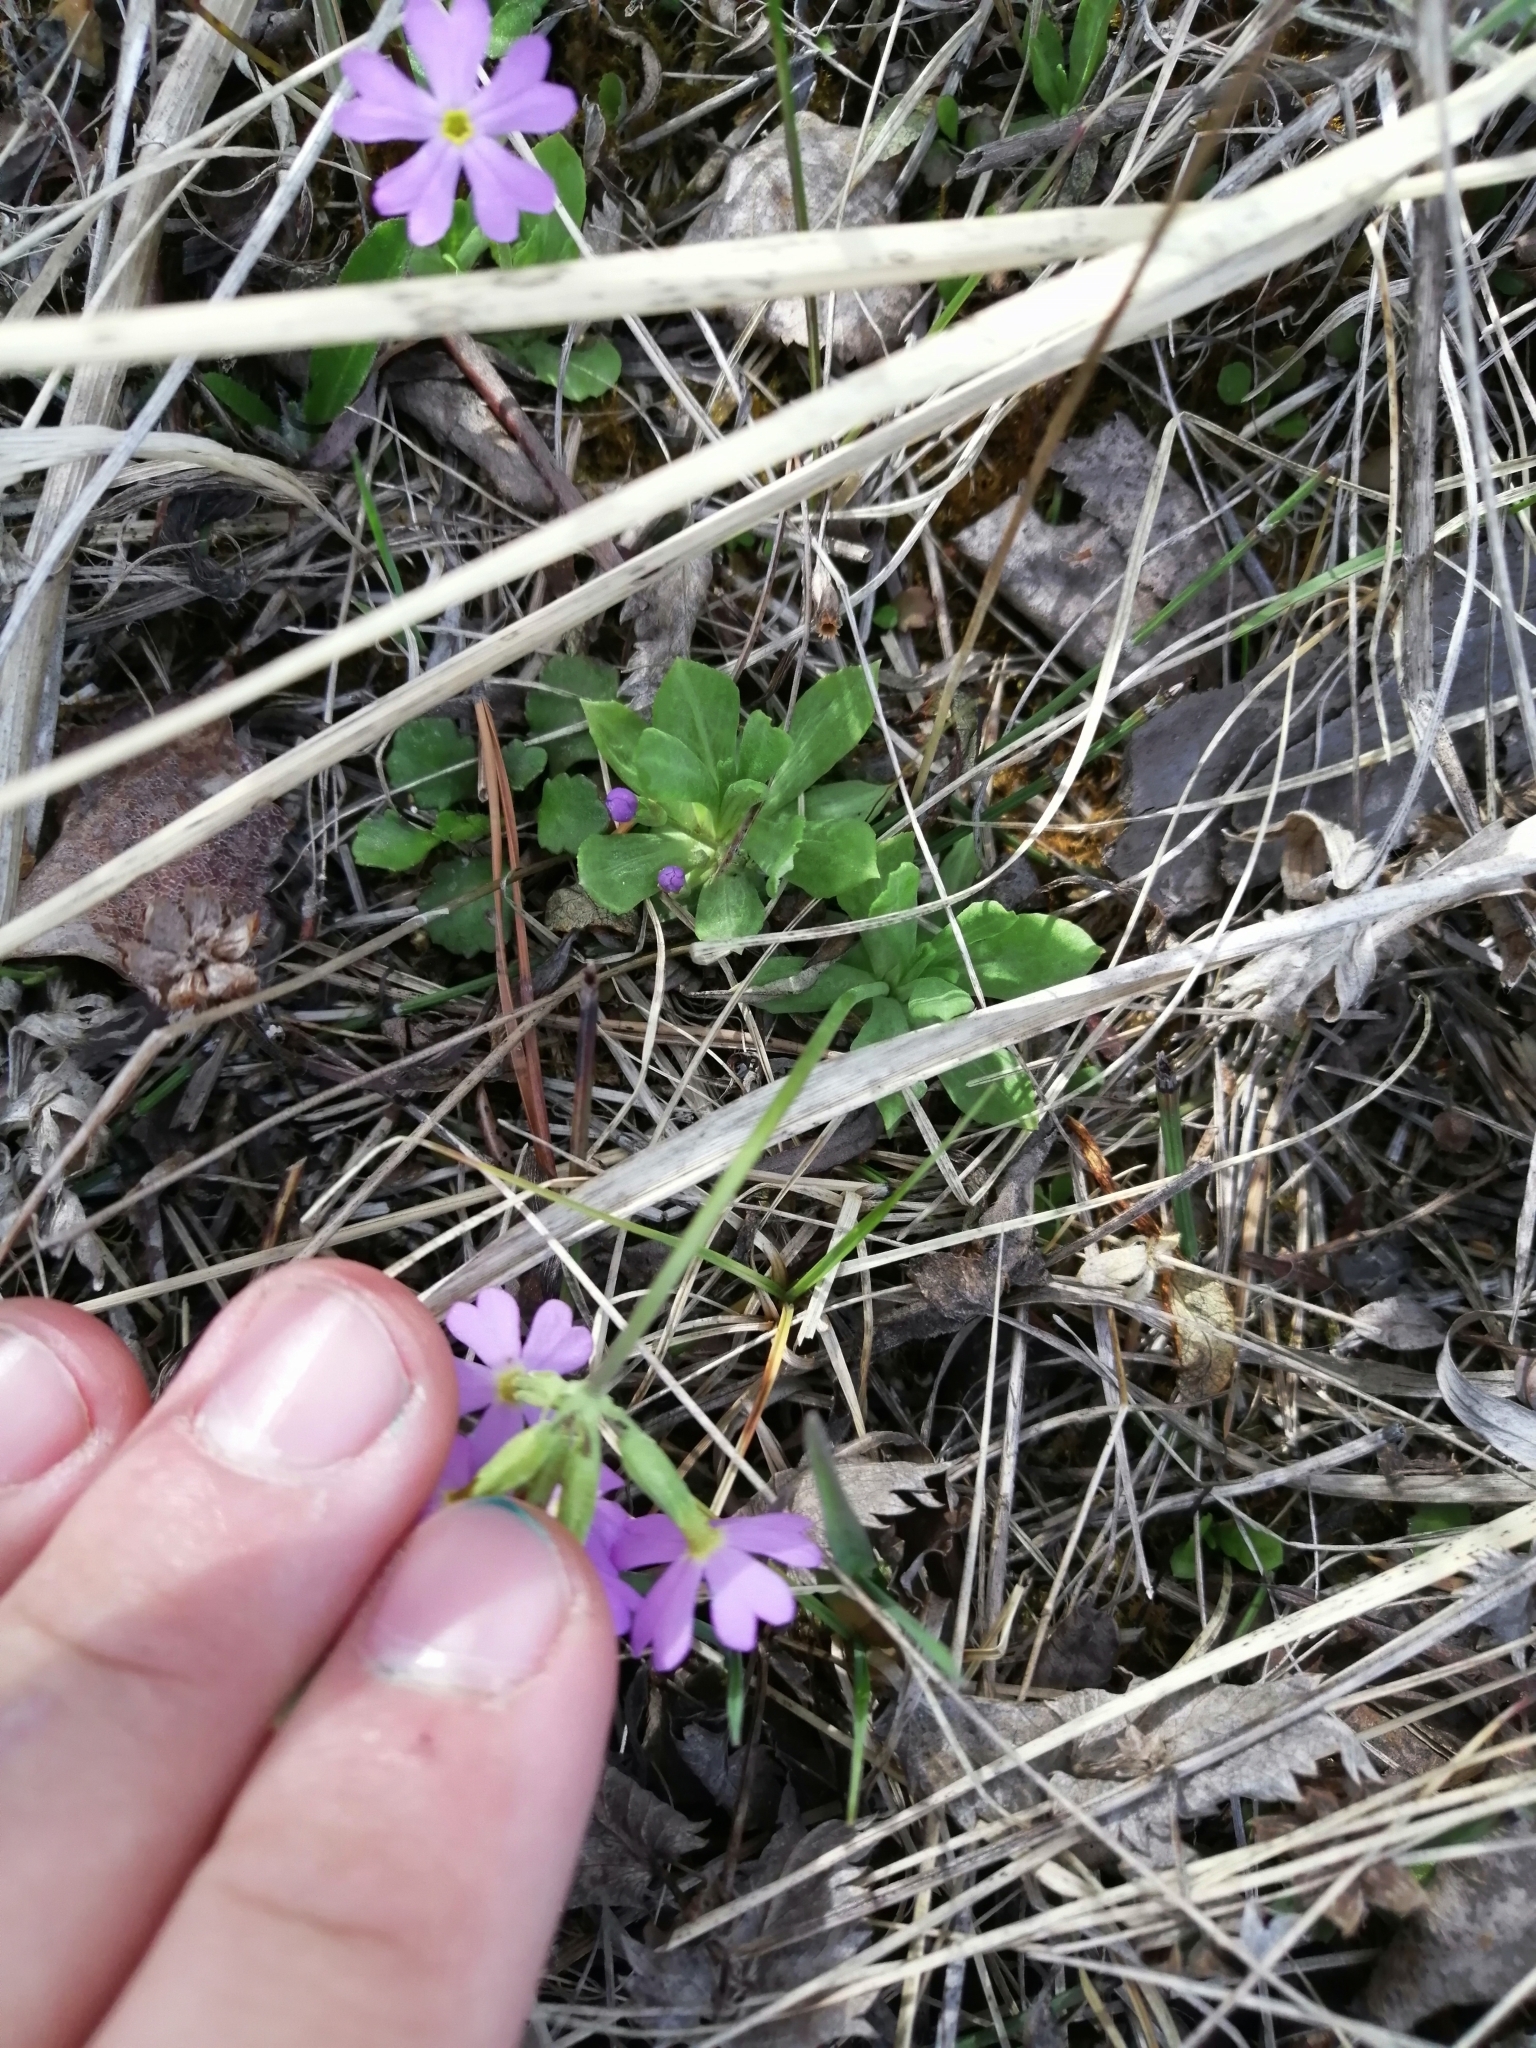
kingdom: Plantae
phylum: Tracheophyta
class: Magnoliopsida
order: Ericales
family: Primulaceae
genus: Primula
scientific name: Primula nutans
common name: Siberian primrose
